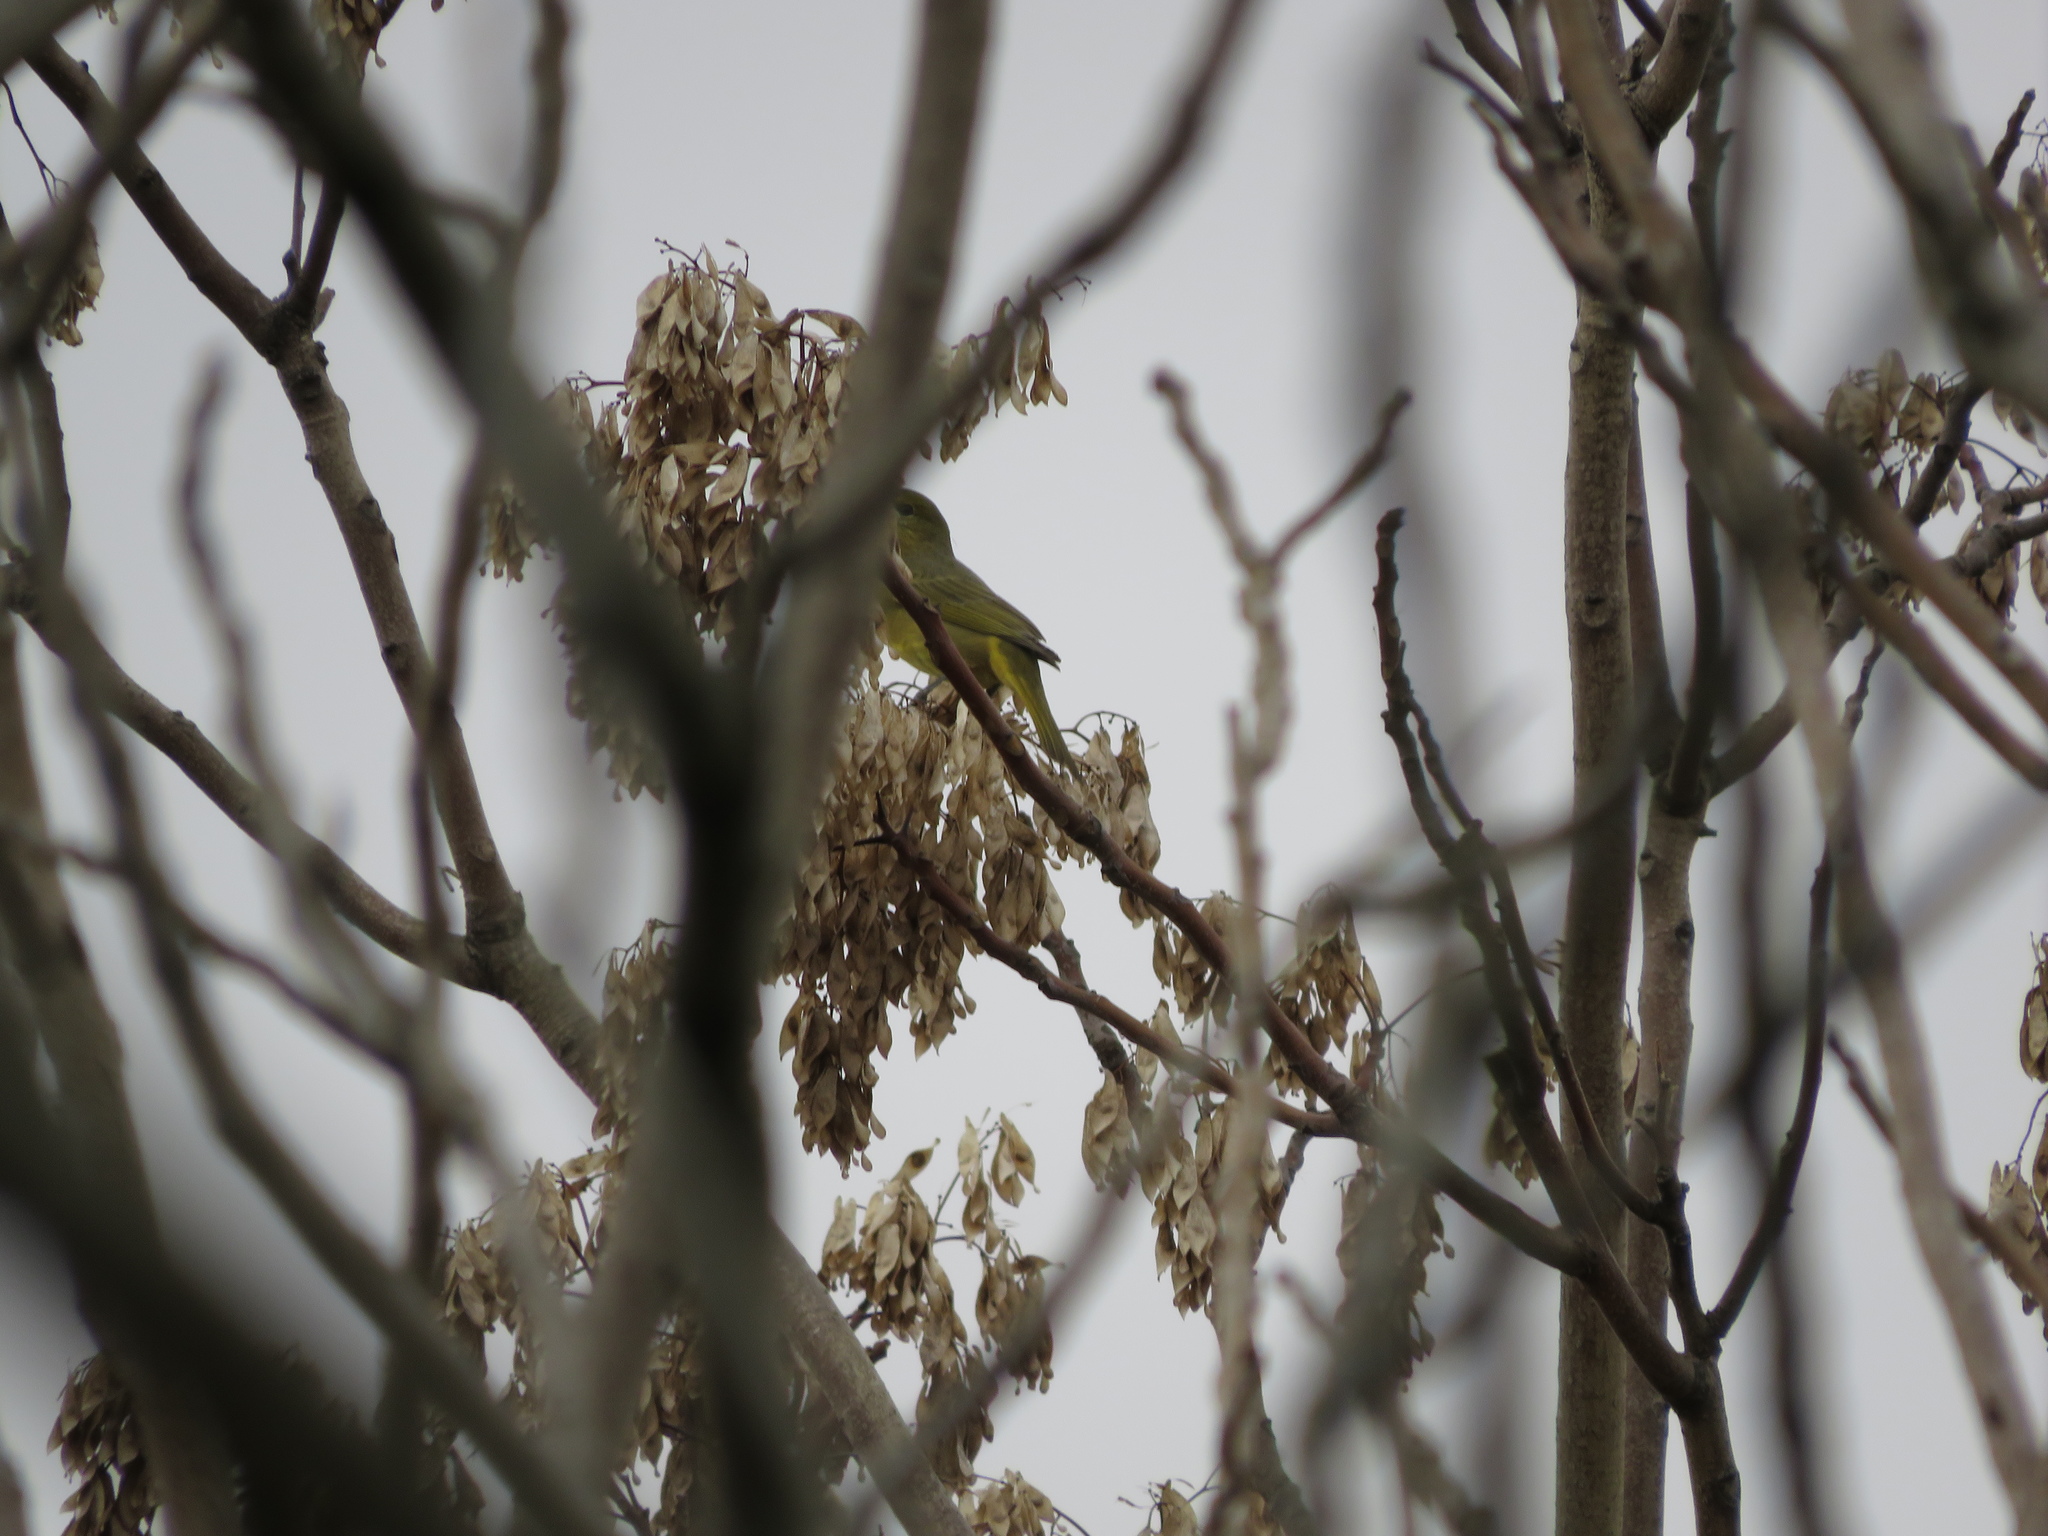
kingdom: Animalia
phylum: Chordata
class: Aves
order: Passeriformes
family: Cardinalidae
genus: Piranga
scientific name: Piranga flava
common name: Red tanager
